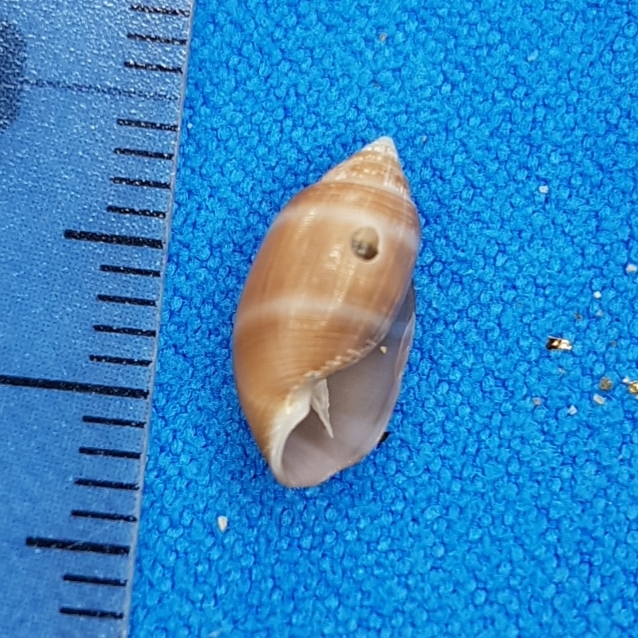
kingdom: Animalia
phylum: Mollusca
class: Gastropoda
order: Cephalaspidea
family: Acteonidae
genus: Acteon
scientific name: Acteon tornatilis
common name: European acteon
